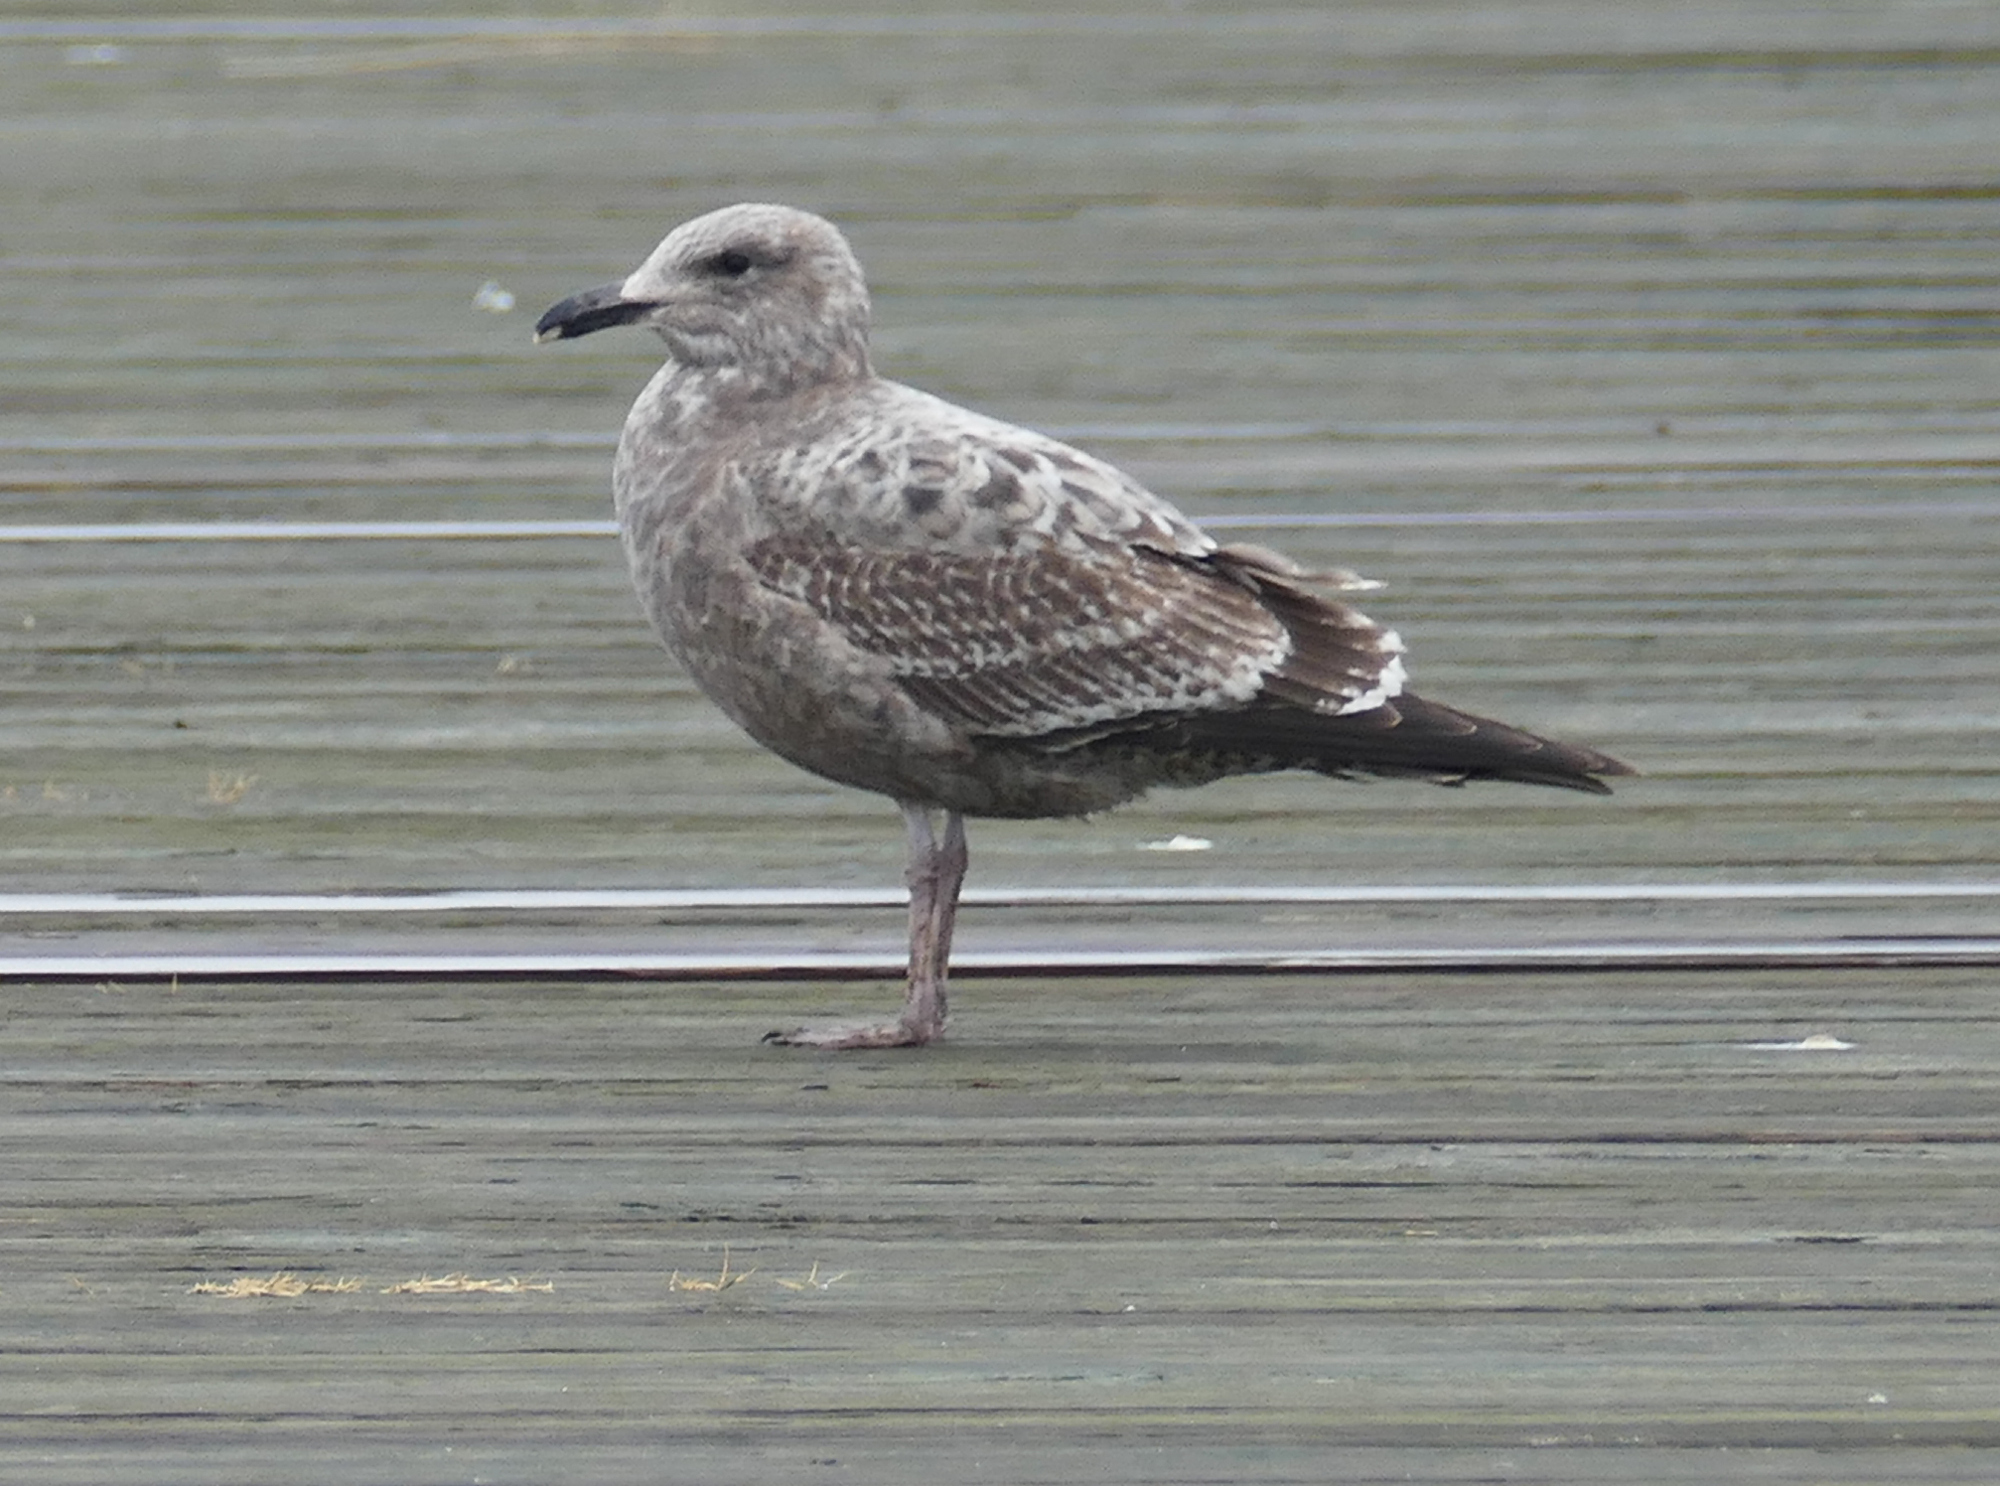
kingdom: Animalia
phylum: Chordata
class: Aves
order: Charadriiformes
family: Laridae
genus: Larus
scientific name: Larus argentatus
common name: Herring gull
